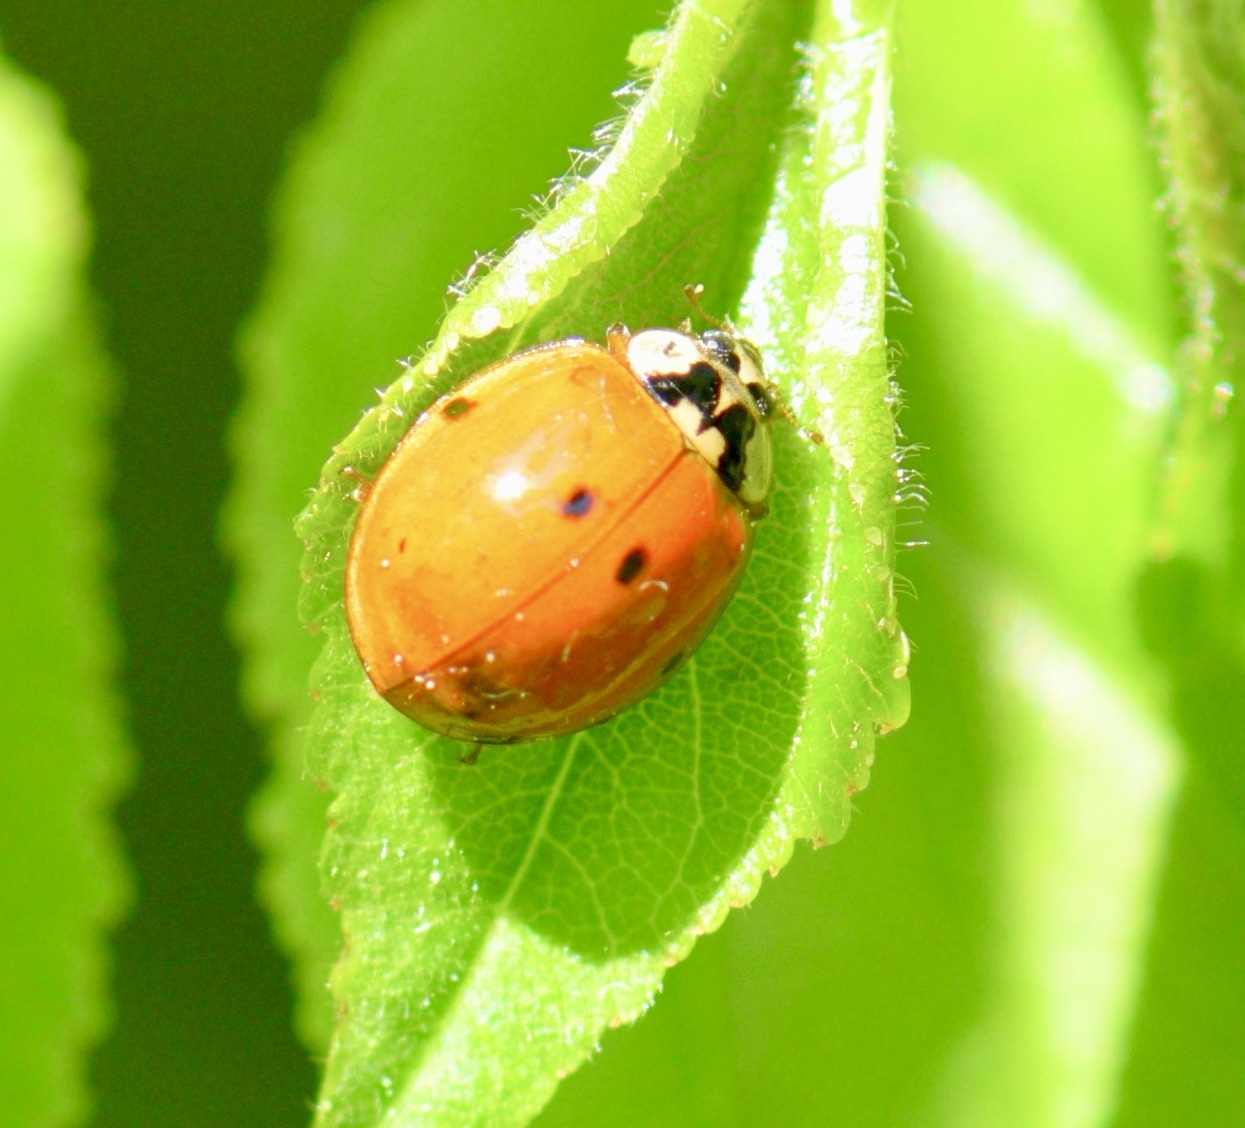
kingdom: Animalia
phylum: Arthropoda
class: Insecta
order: Coleoptera
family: Coccinellidae
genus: Harmonia
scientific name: Harmonia axyridis
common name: Harlequin ladybird
